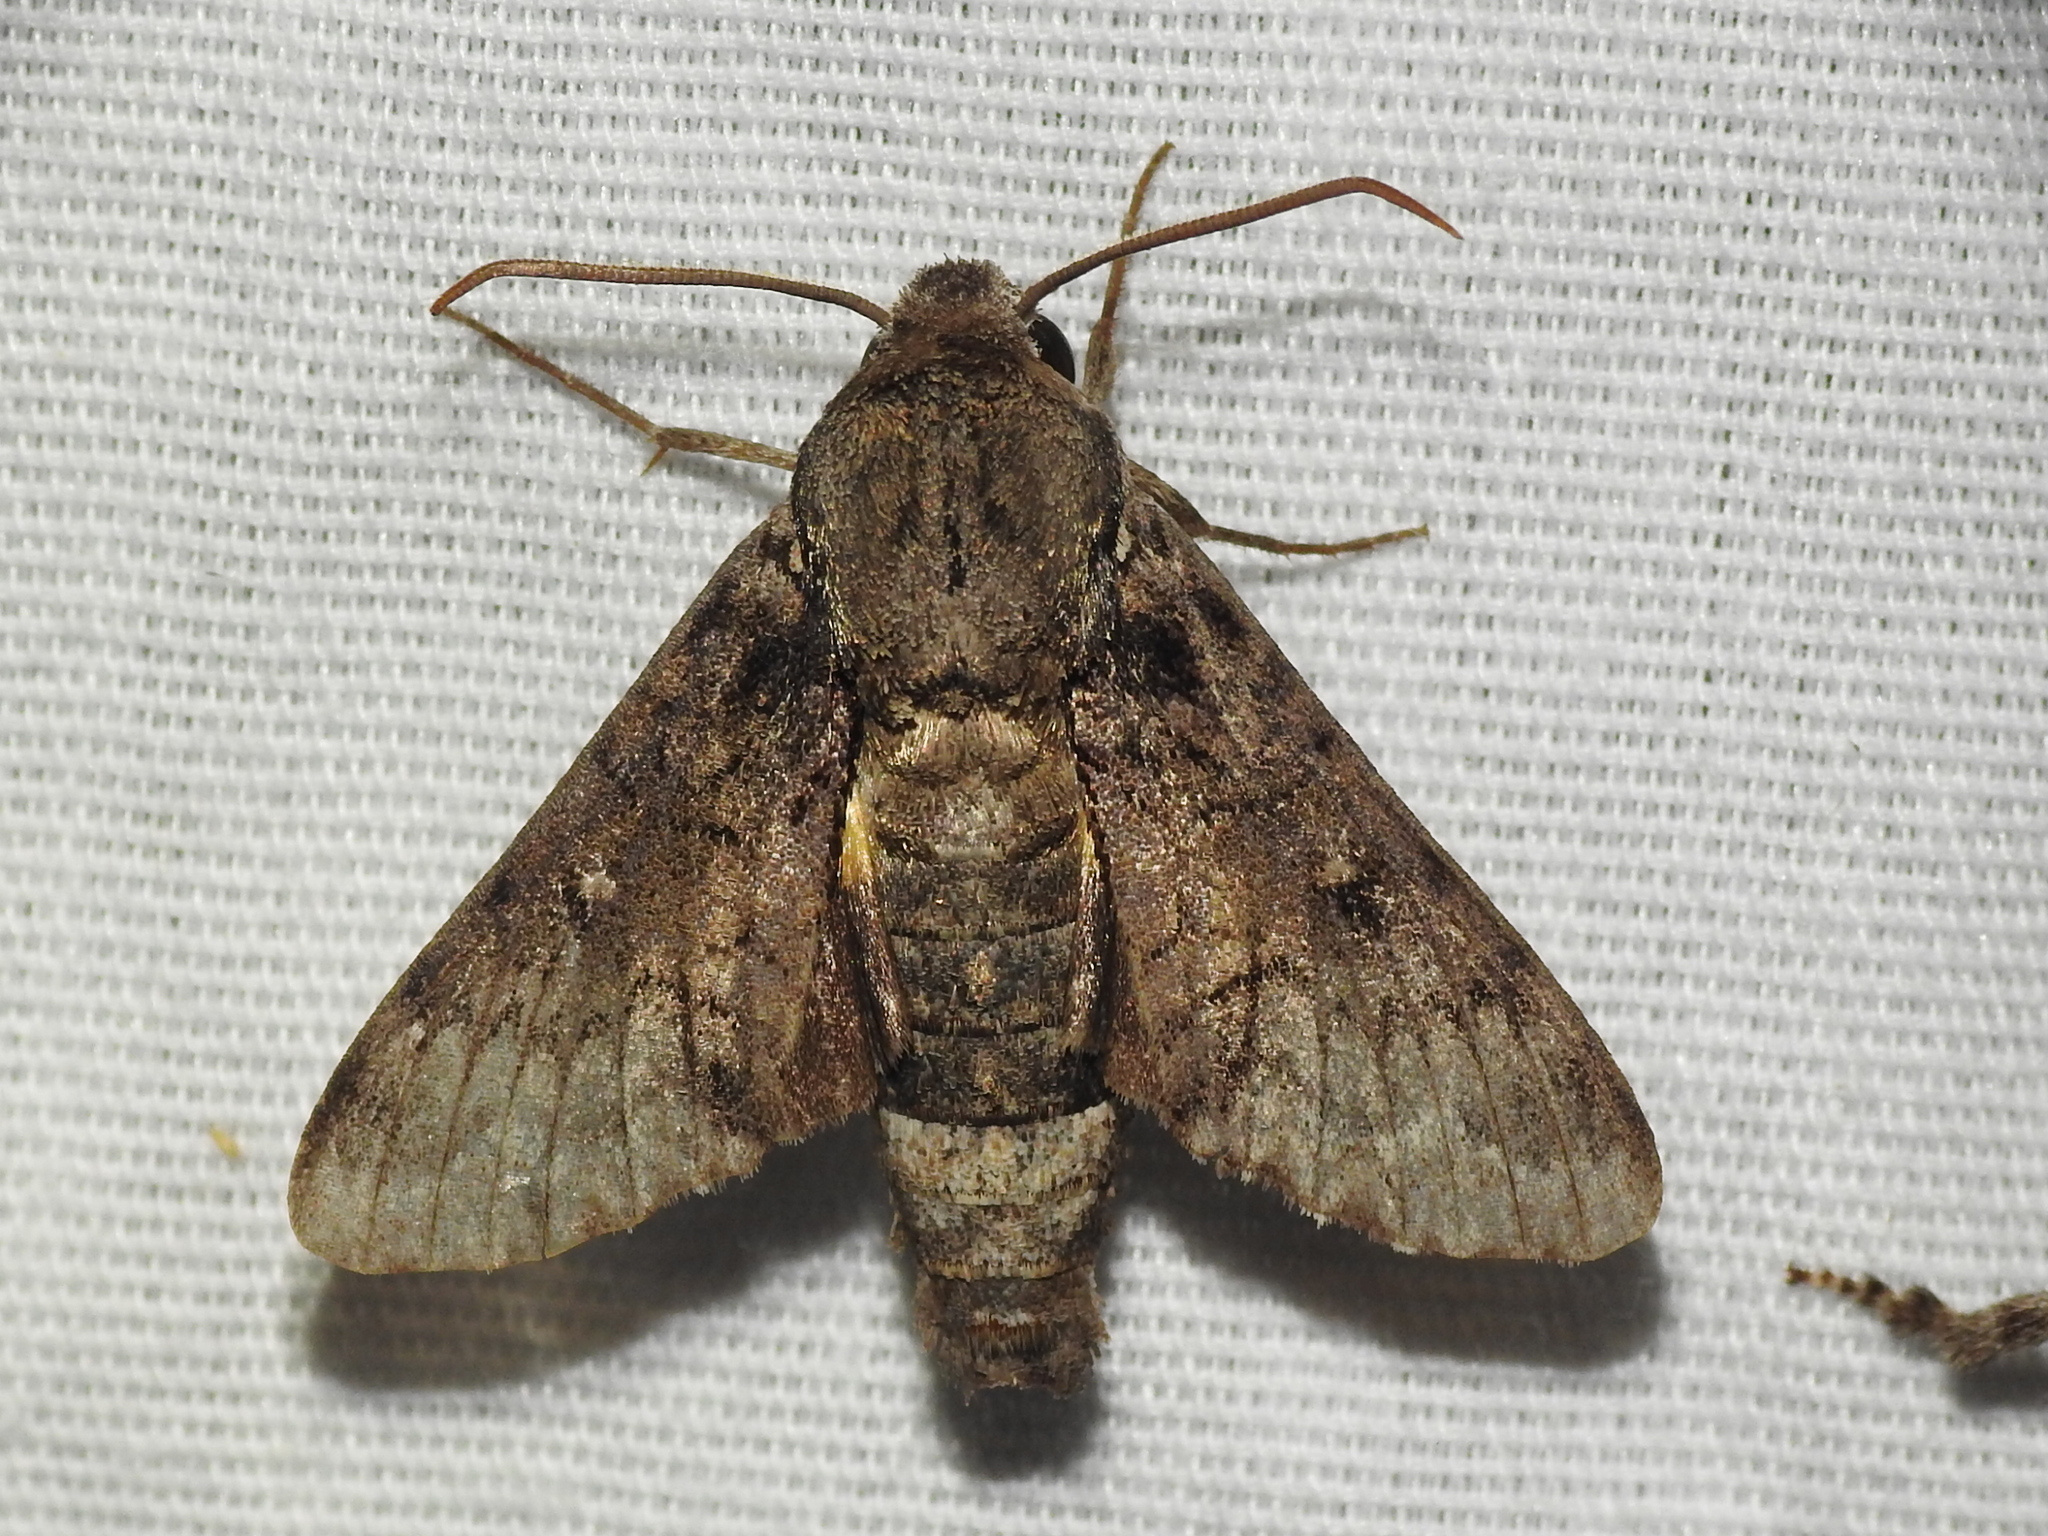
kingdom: Animalia
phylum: Arthropoda
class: Insecta
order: Lepidoptera
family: Sphingidae
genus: Cautethia
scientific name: Cautethia spuria
